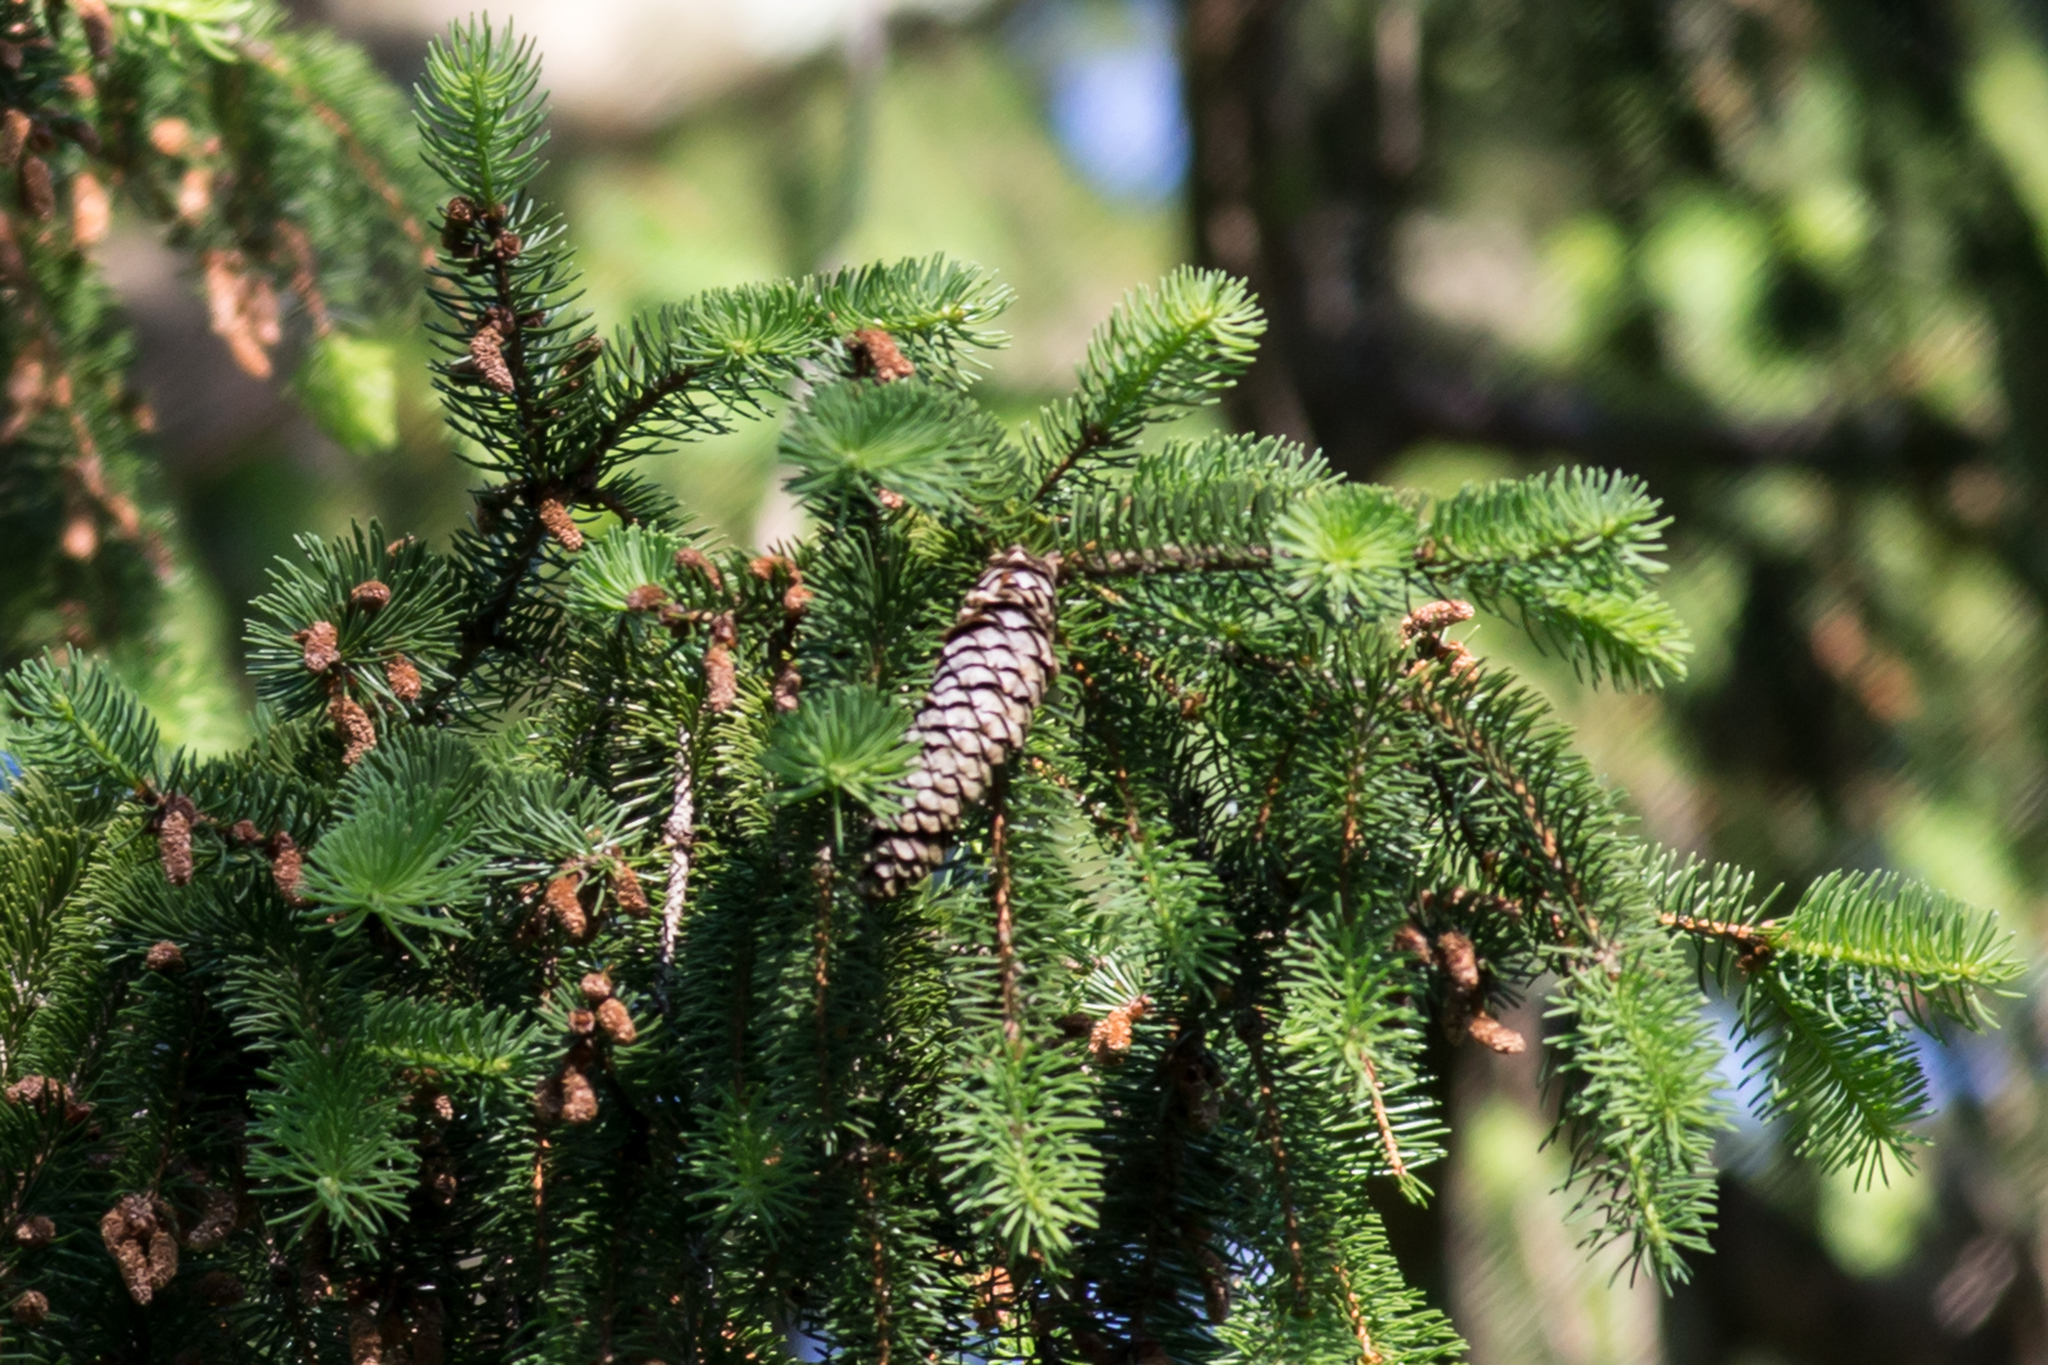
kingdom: Plantae
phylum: Tracheophyta
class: Pinopsida
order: Pinales
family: Pinaceae
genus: Picea
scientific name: Picea abies
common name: Norway spruce
